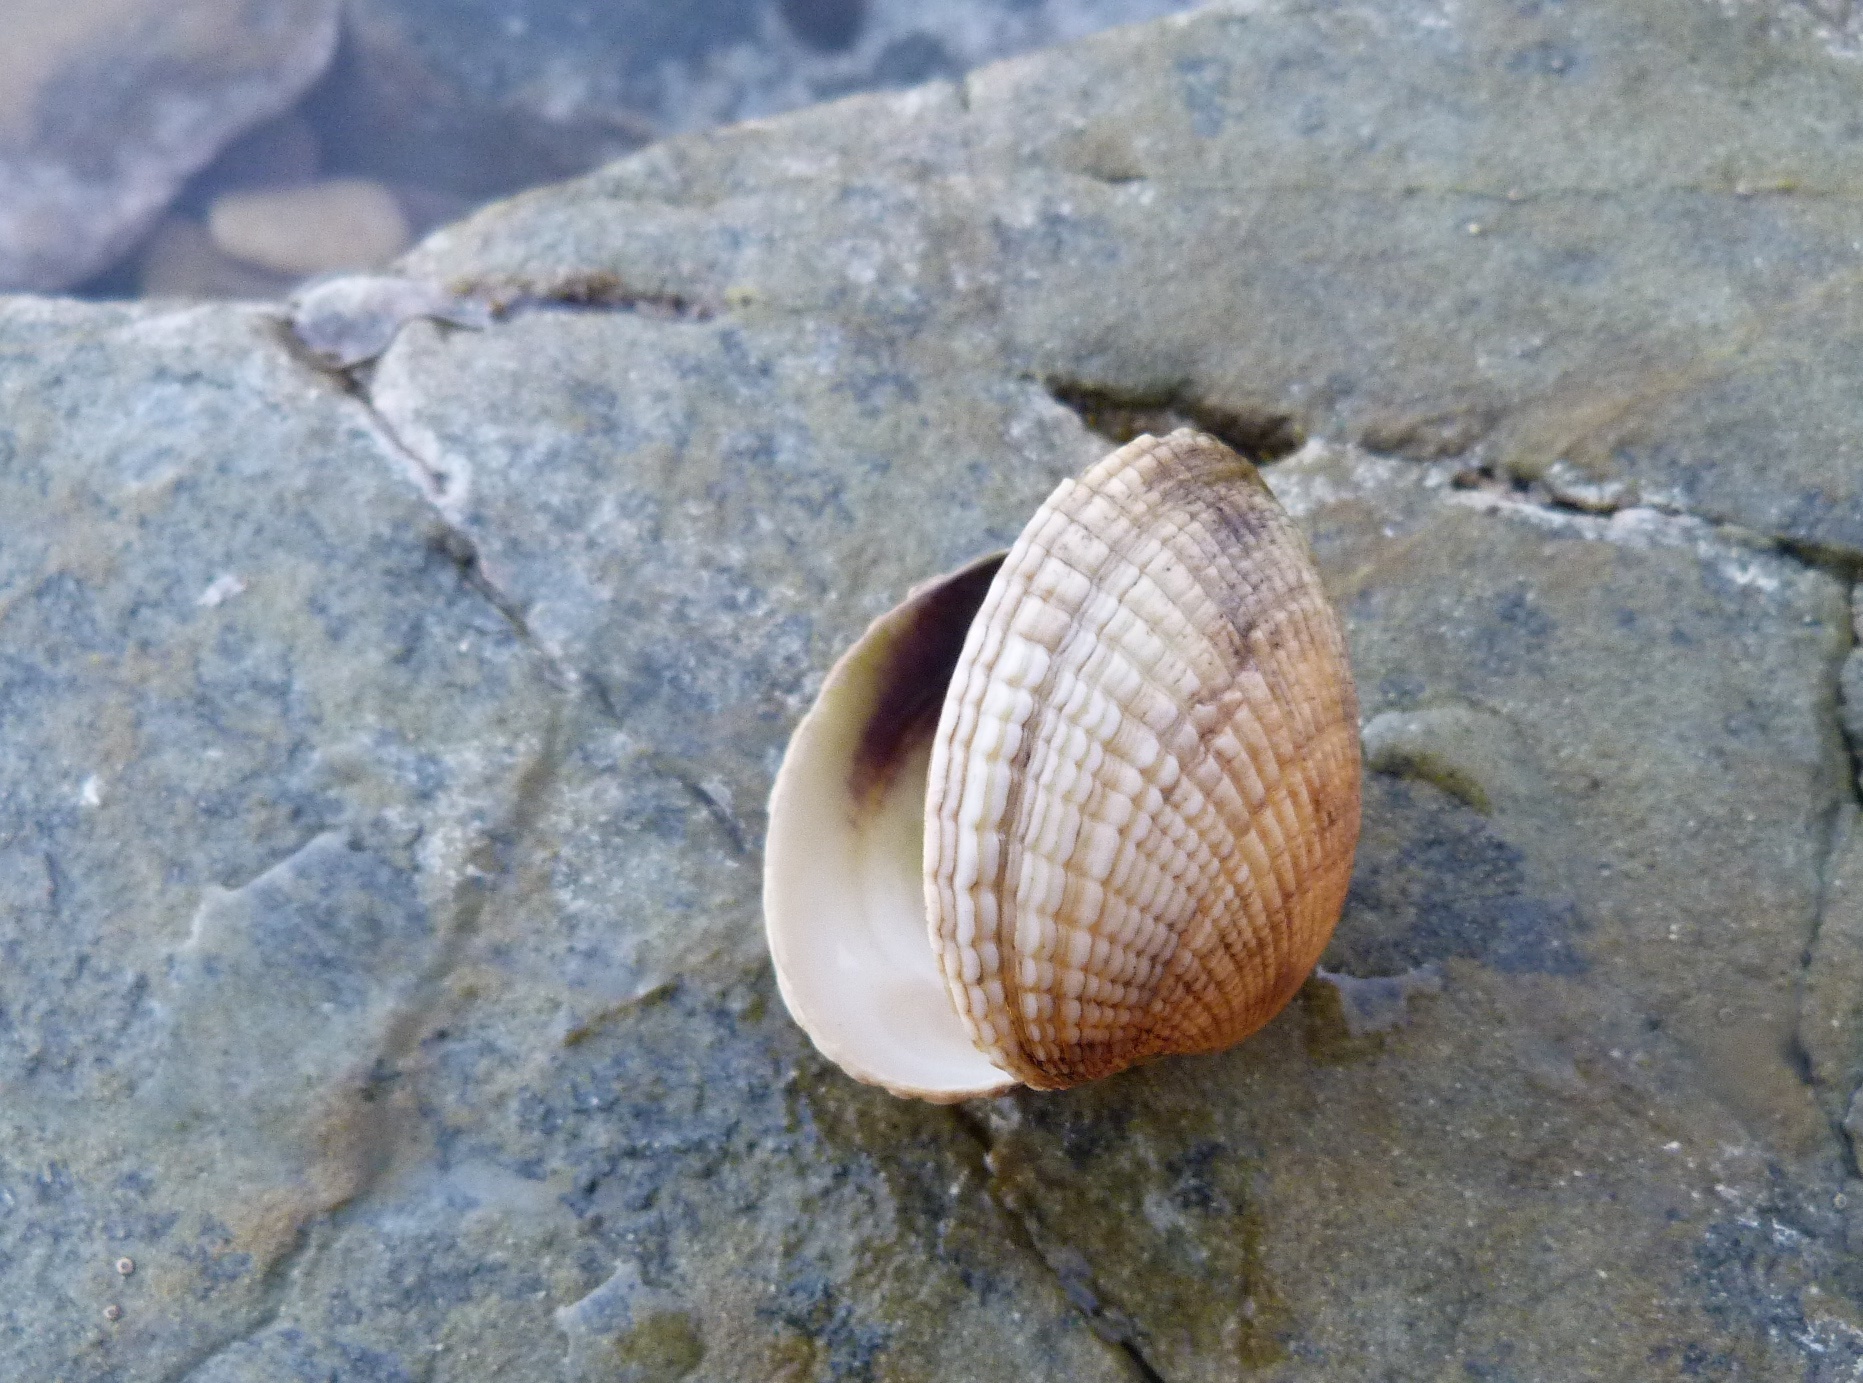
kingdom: Animalia
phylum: Mollusca
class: Bivalvia
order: Venerida
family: Veneridae
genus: Leukoma
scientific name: Leukoma crassicosta
